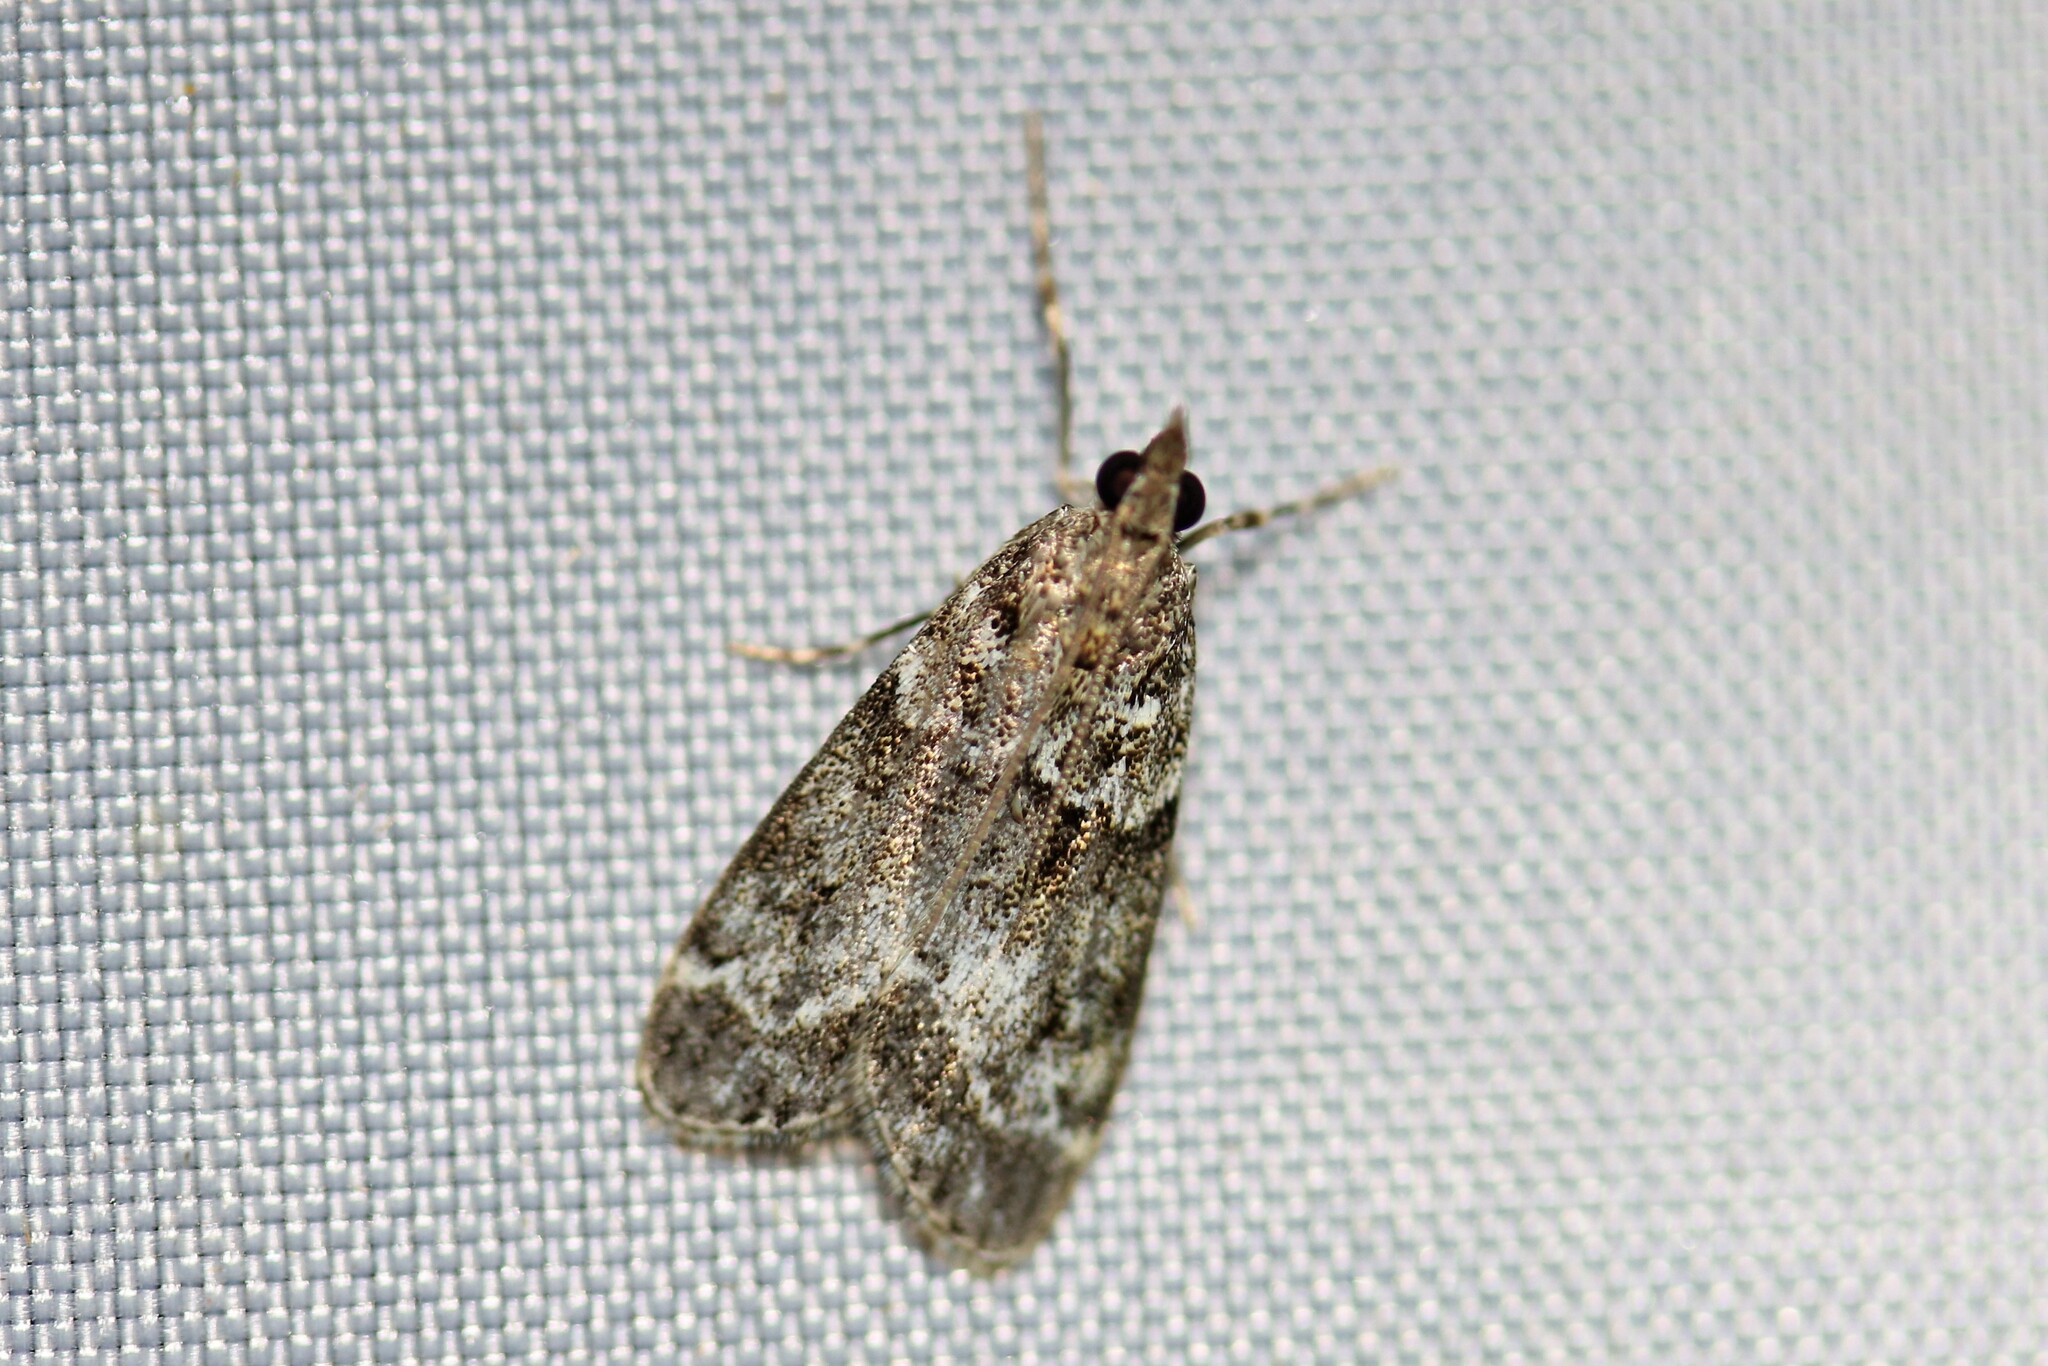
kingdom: Animalia
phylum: Arthropoda
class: Insecta
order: Lepidoptera
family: Crambidae
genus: Eudonia
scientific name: Eudonia mercurella
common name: Small grey
